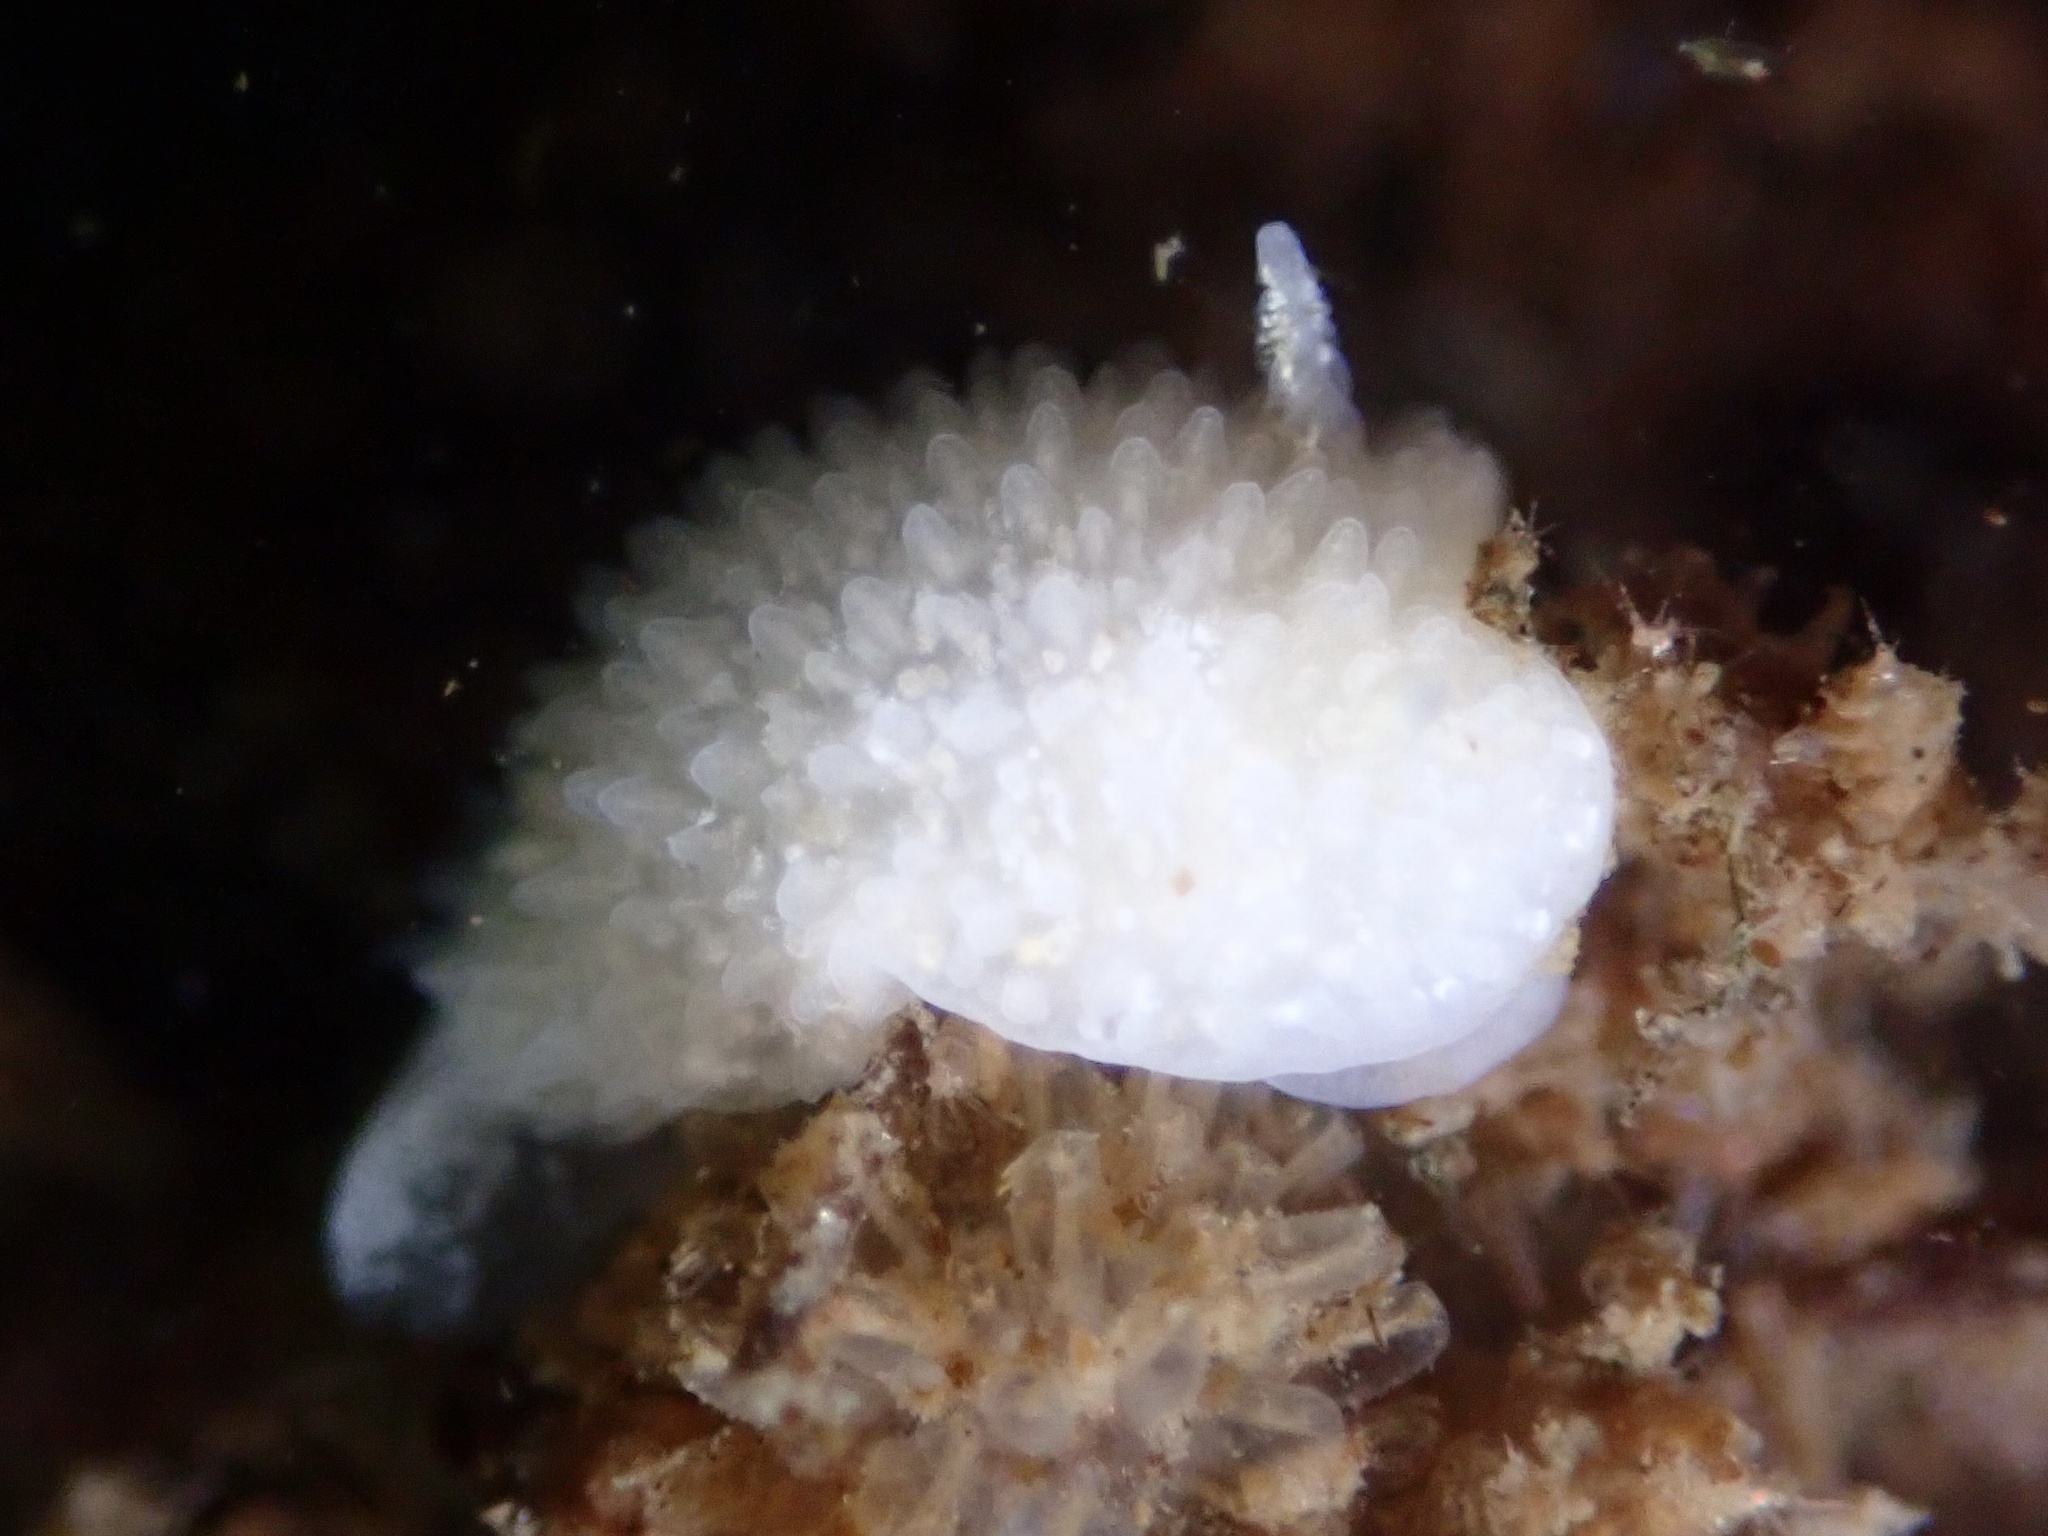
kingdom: Animalia
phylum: Mollusca
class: Gastropoda
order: Nudibranchia
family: Calycidorididae
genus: Diaphorodoris
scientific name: Diaphorodoris lirulatocauda
